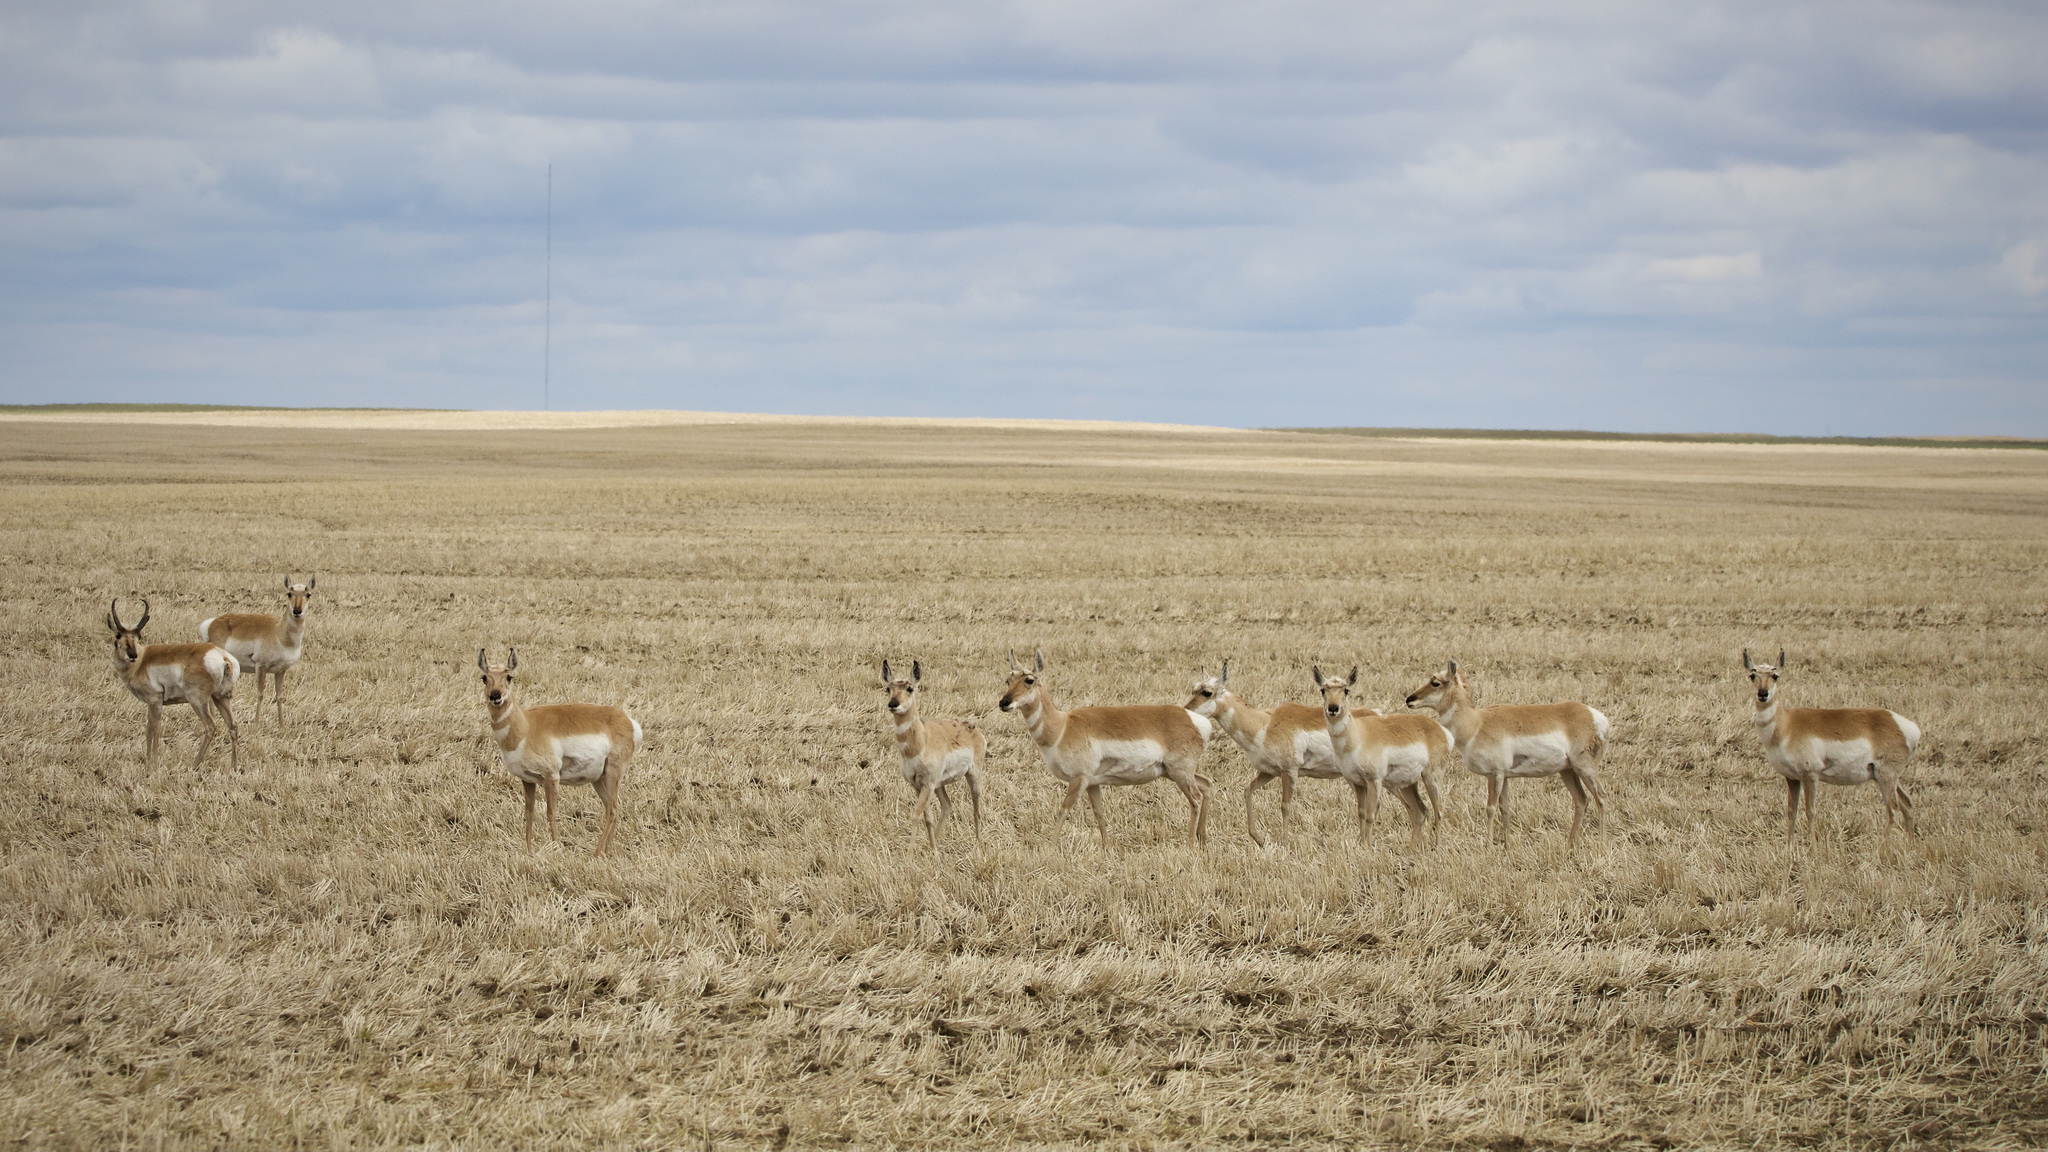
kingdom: Animalia
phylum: Chordata
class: Mammalia
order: Artiodactyla
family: Antilocapridae
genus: Antilocapra
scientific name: Antilocapra americana
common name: Pronghorn
